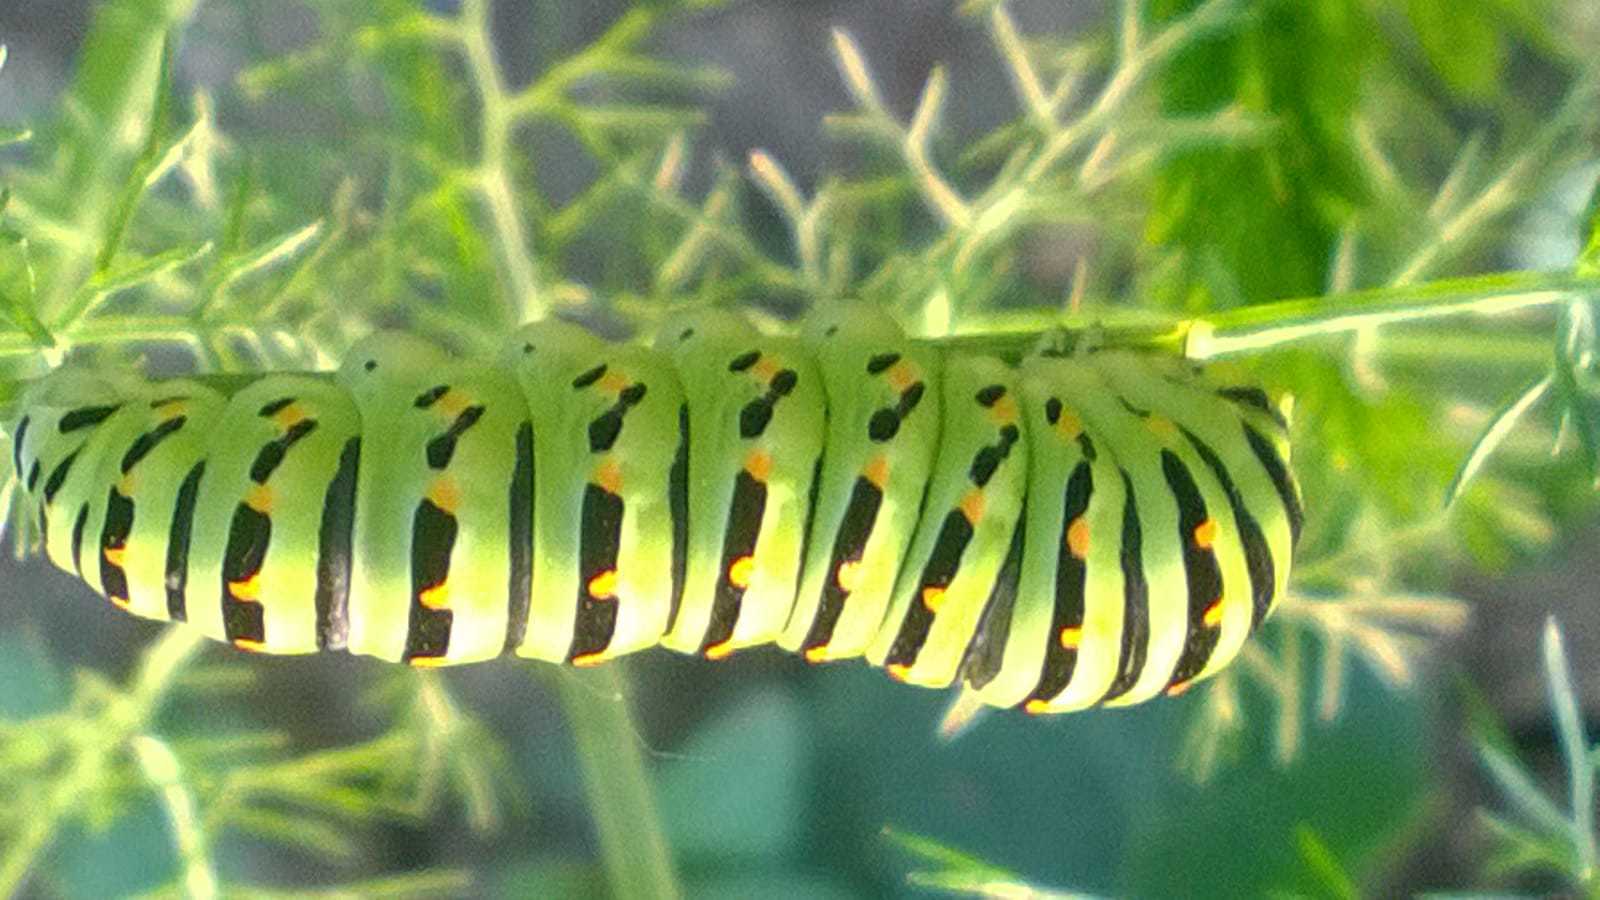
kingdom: Animalia
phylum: Arthropoda
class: Insecta
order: Lepidoptera
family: Papilionidae
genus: Papilio
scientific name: Papilio machaon
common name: Swallowtail
